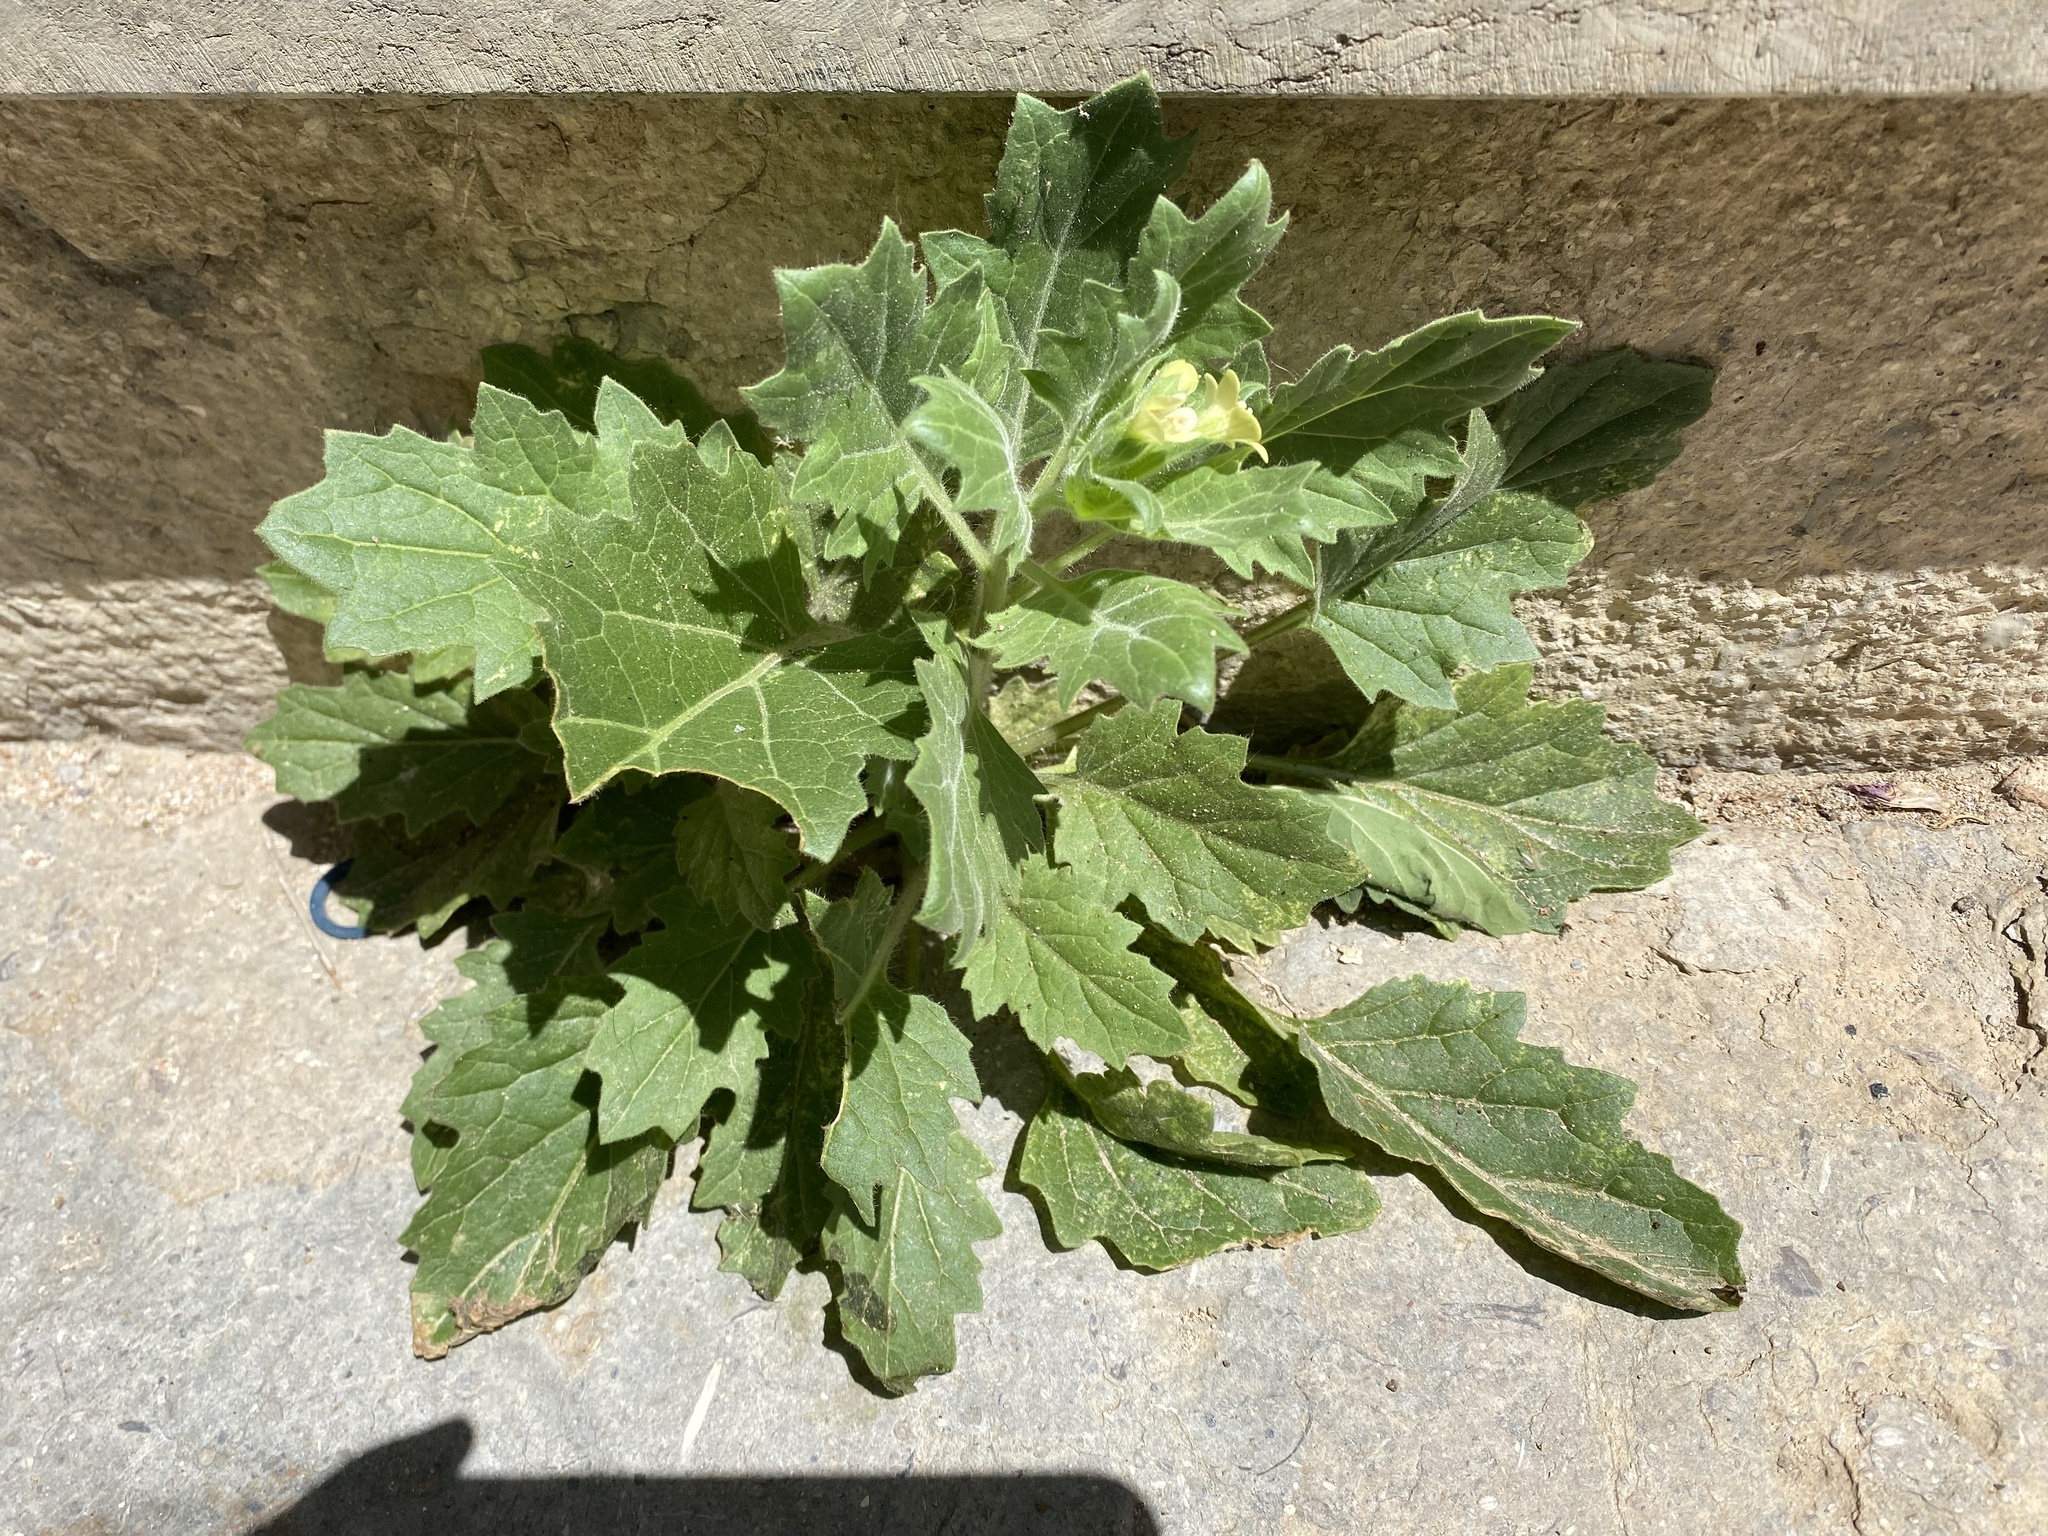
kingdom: Plantae
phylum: Tracheophyta
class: Magnoliopsida
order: Solanales
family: Solanaceae
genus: Hyoscyamus
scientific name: Hyoscyamus albus
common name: White henbane
